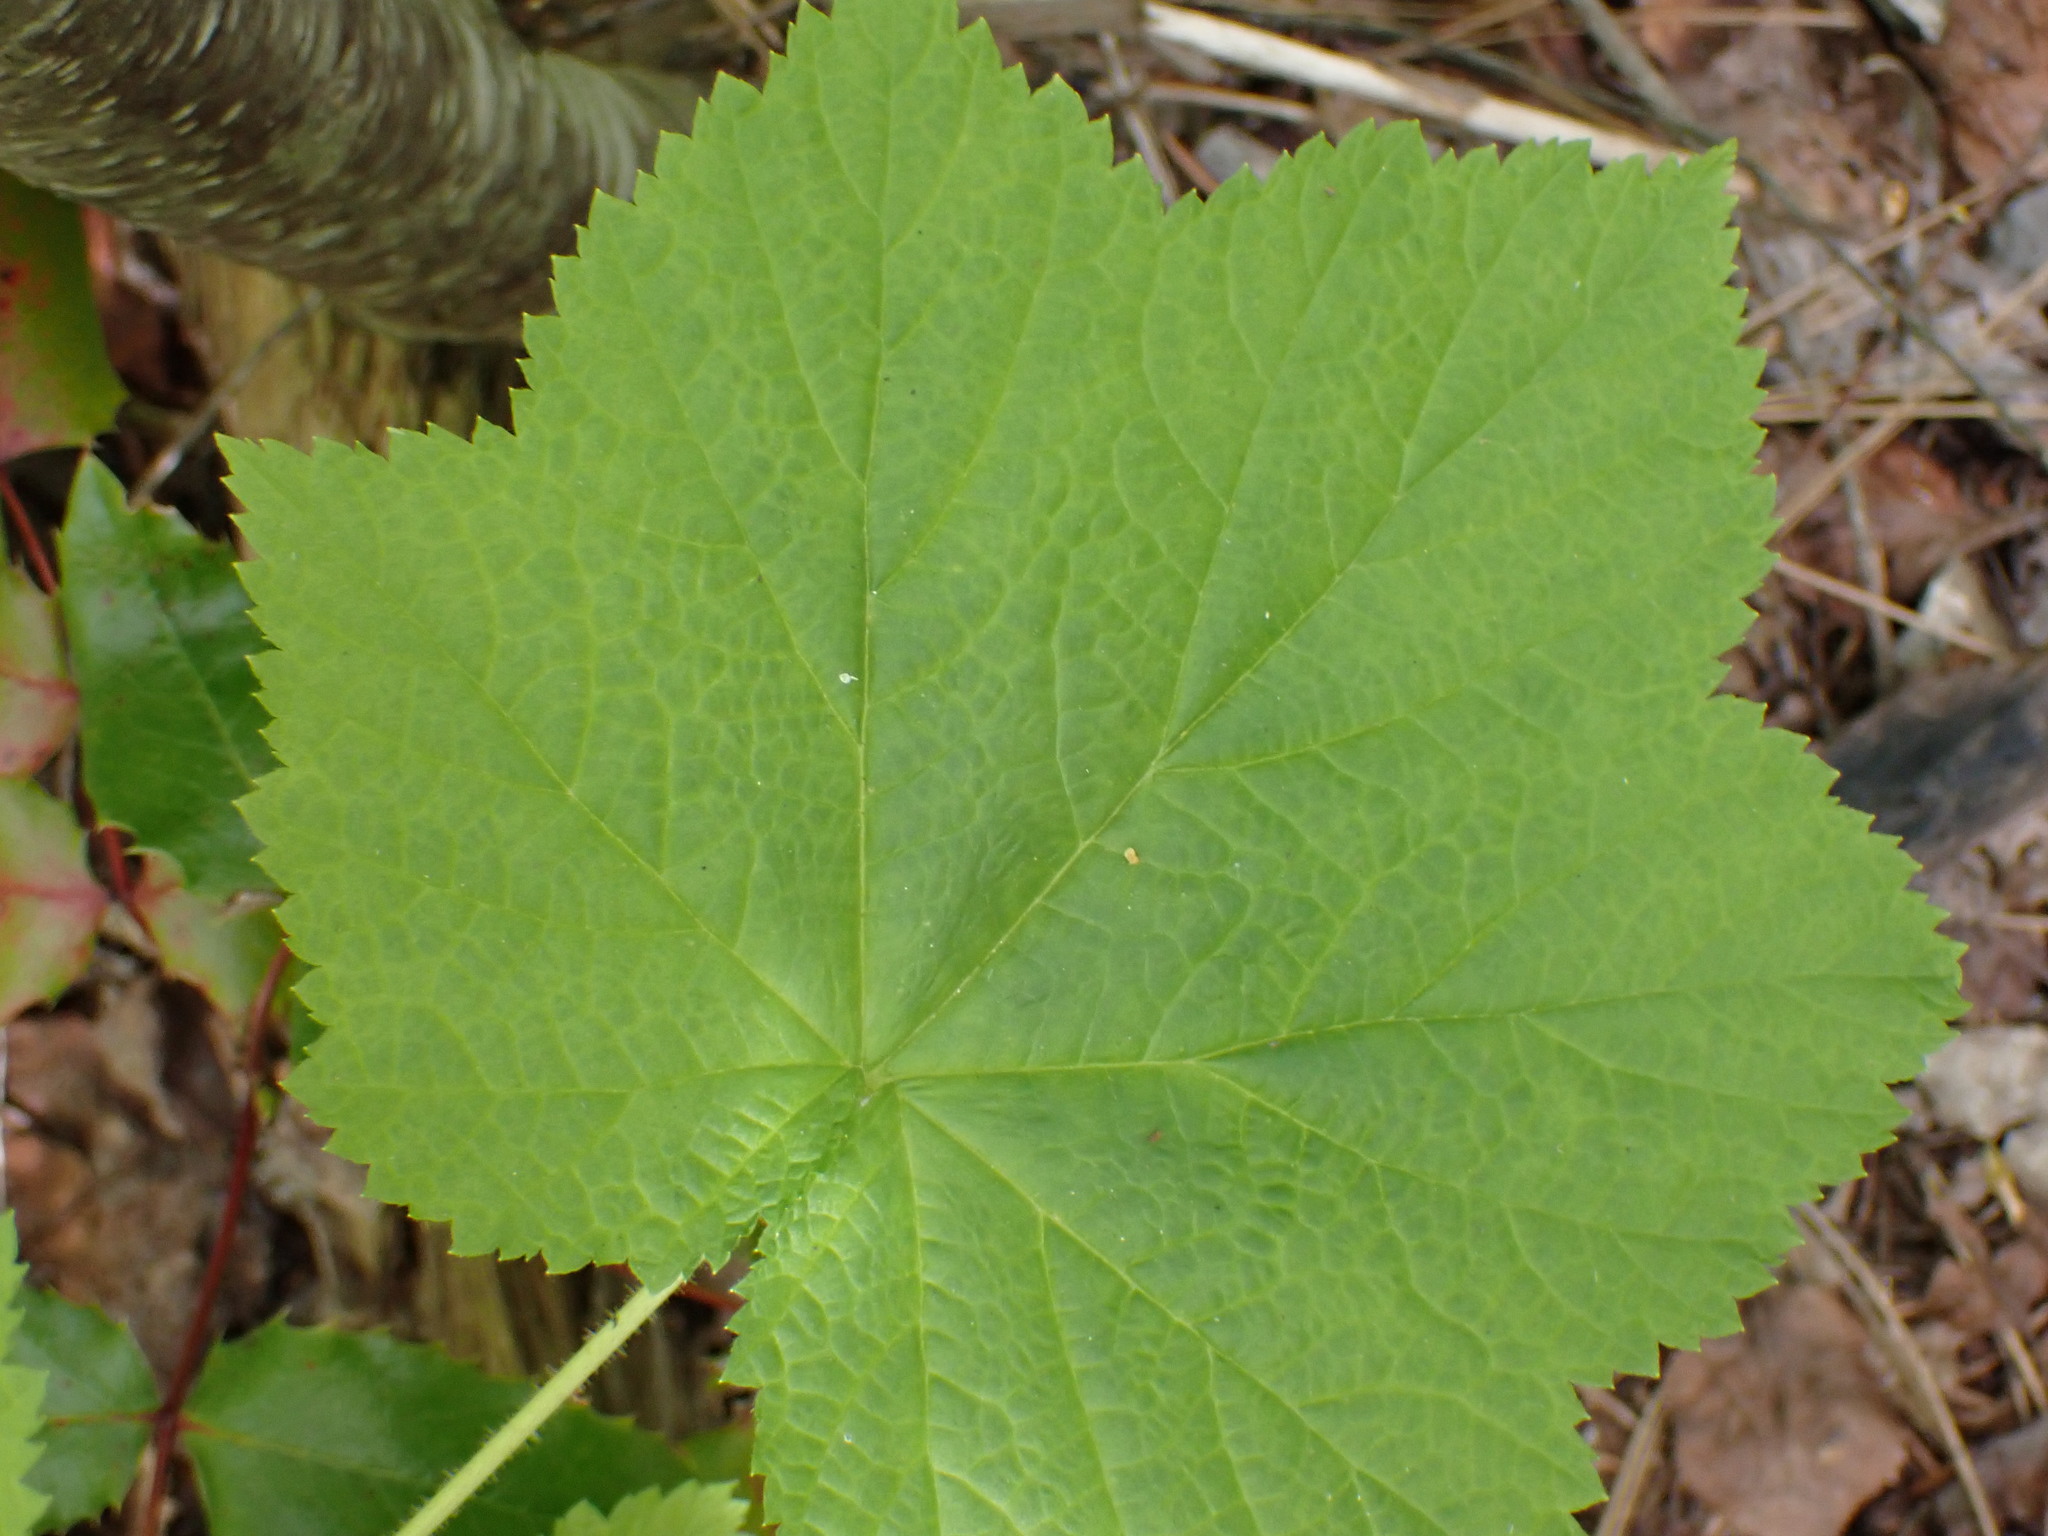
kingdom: Plantae
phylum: Tracheophyta
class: Magnoliopsida
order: Rosales
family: Rosaceae
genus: Rubus
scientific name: Rubus parviflorus
